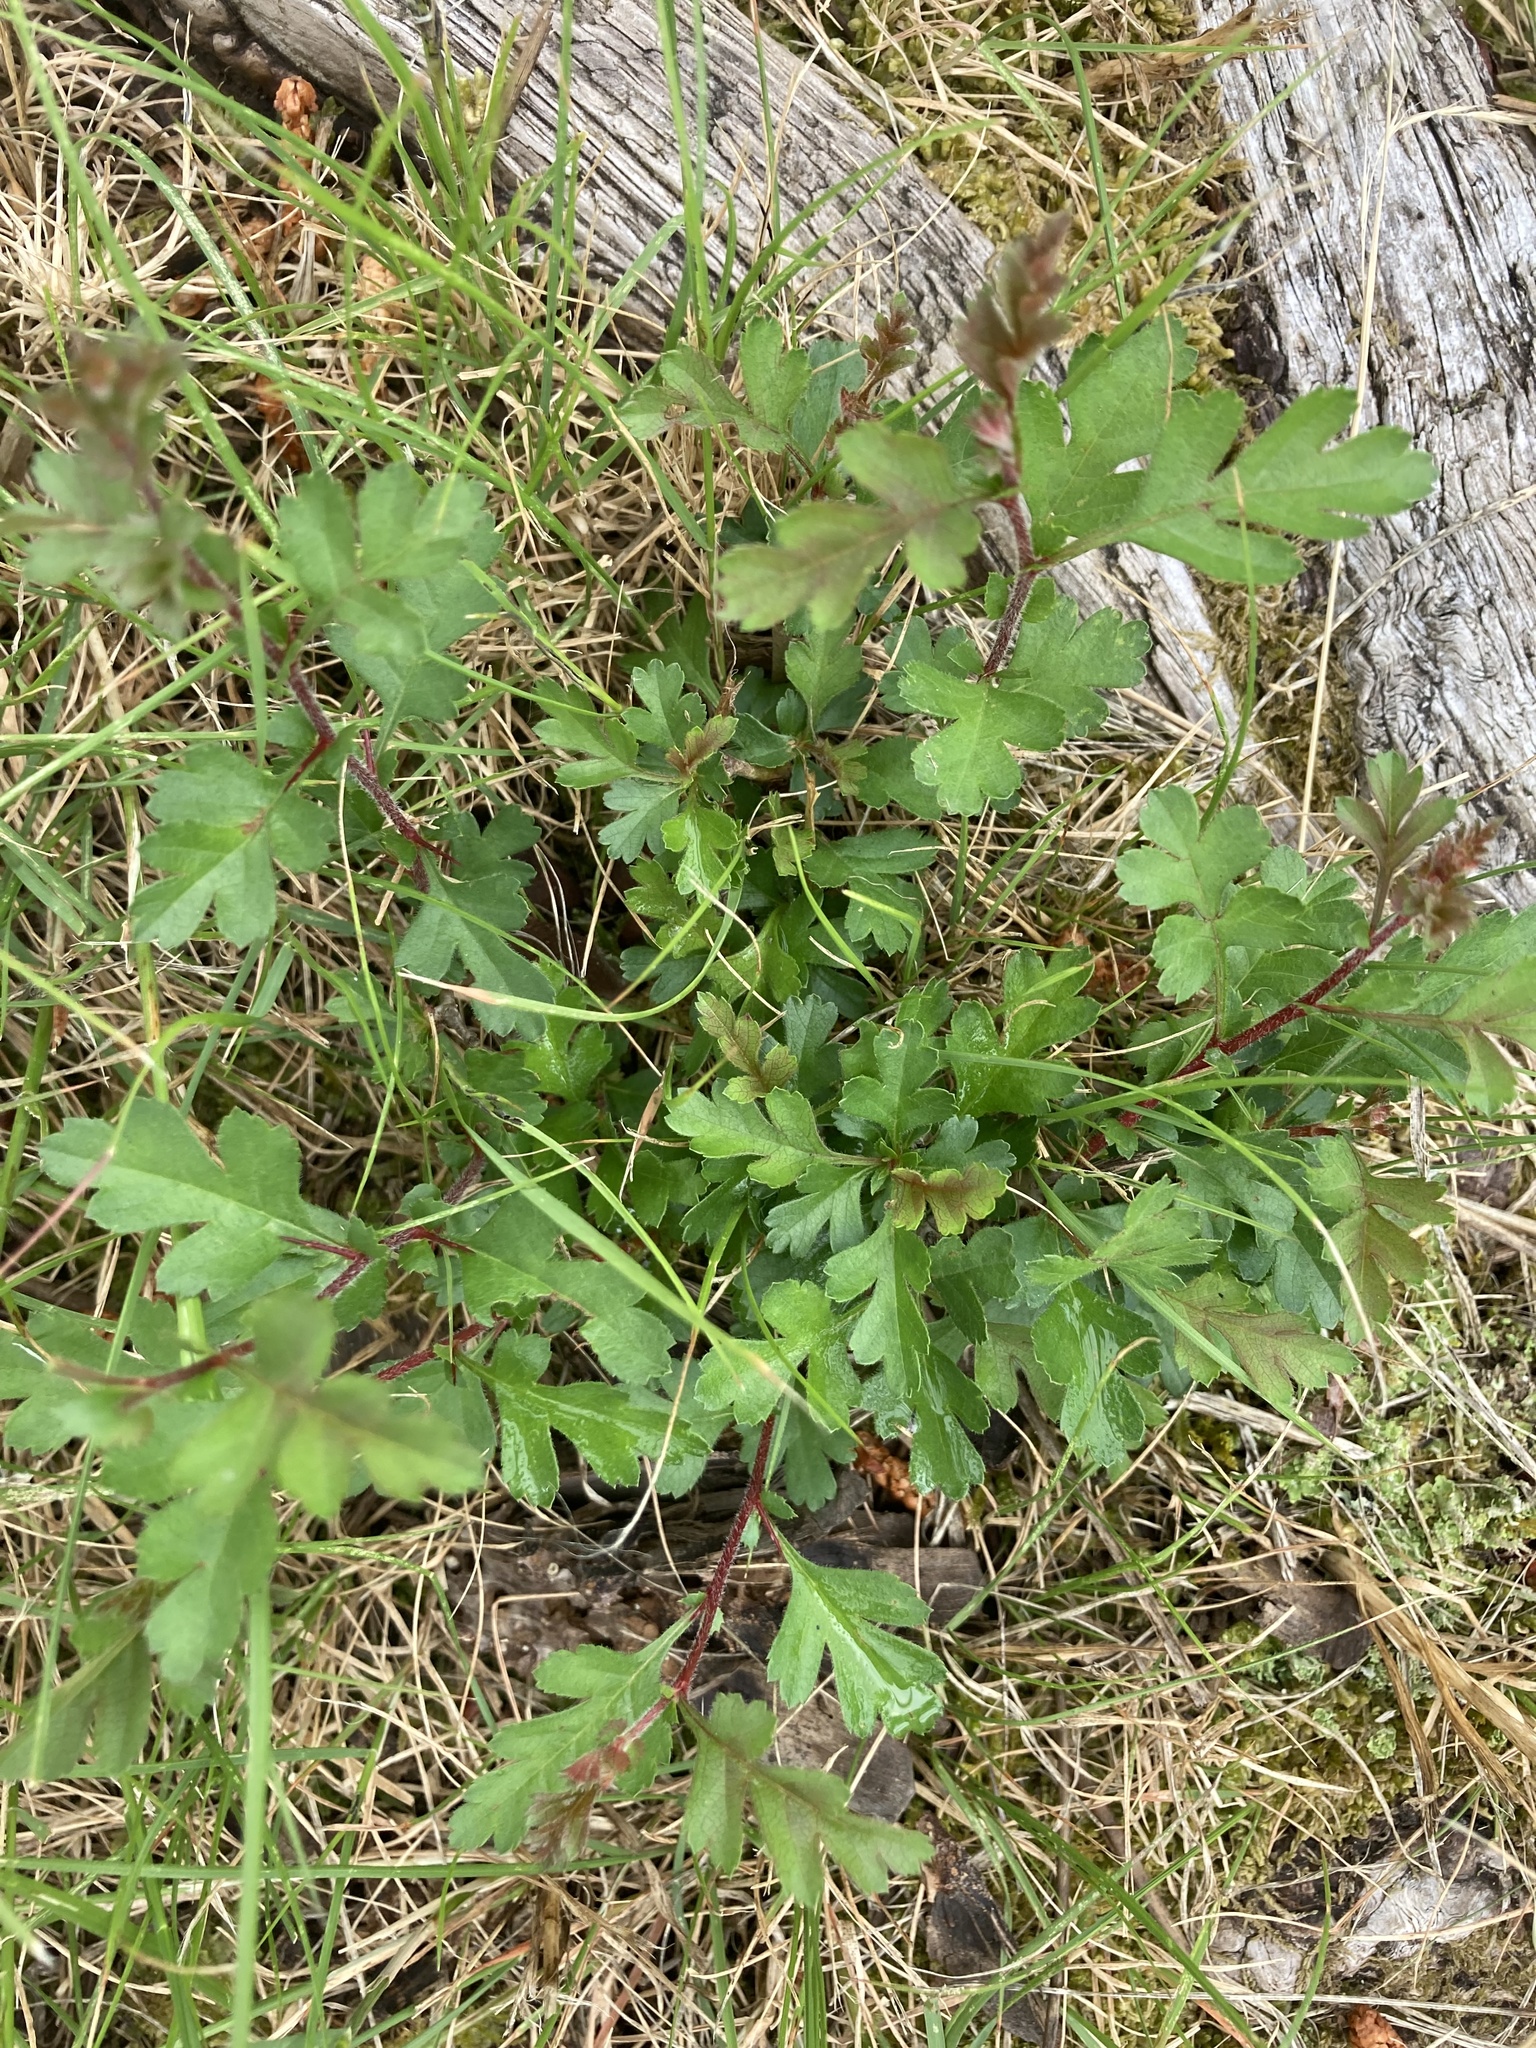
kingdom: Plantae
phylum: Tracheophyta
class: Magnoliopsida
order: Rosales
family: Rosaceae
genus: Crataegus
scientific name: Crataegus monogyna
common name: Hawthorn
